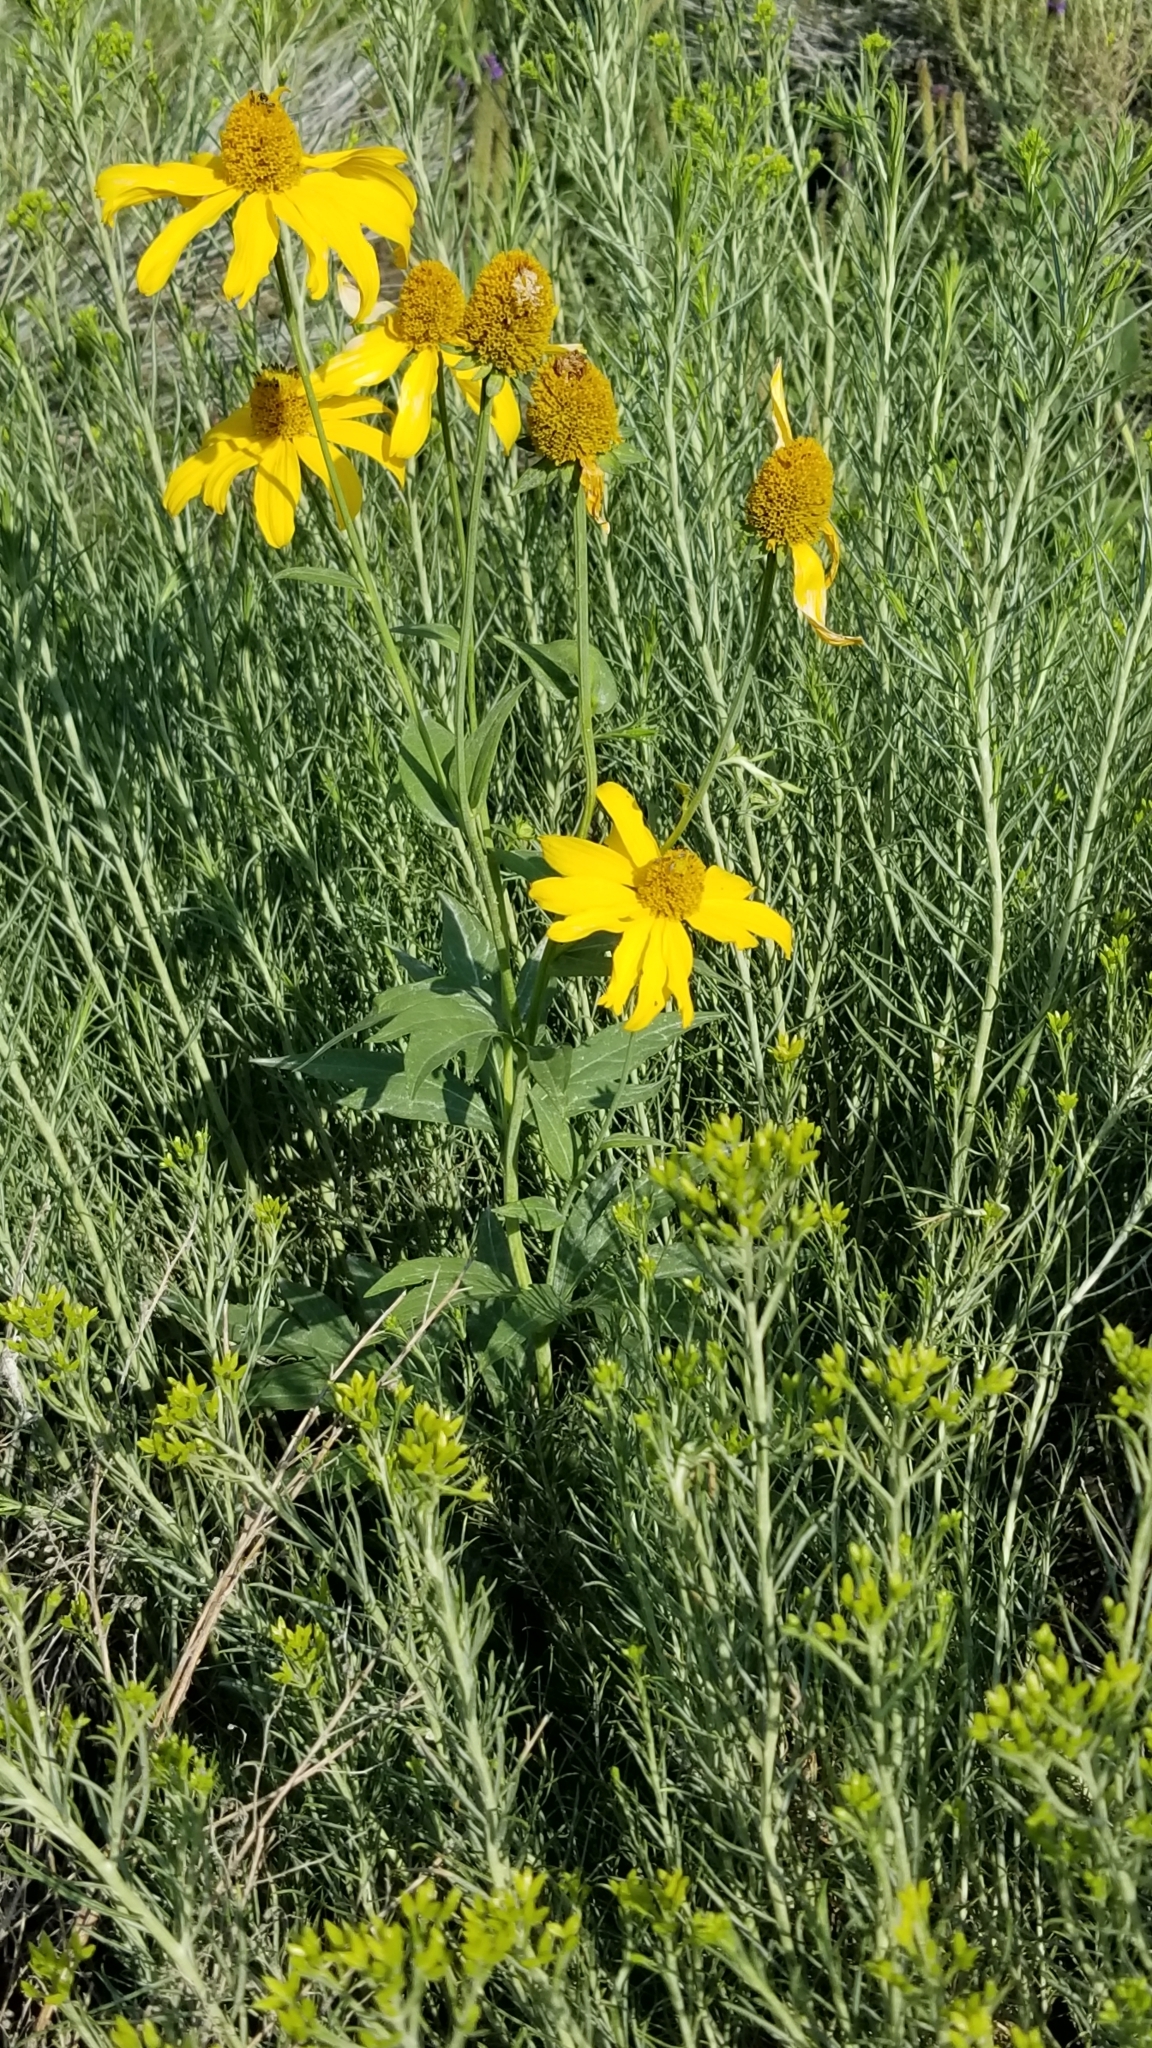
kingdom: Plantae
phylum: Tracheophyta
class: Magnoliopsida
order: Asterales
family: Asteraceae
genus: Rudbeckia
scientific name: Rudbeckia laciniata
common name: Coneflower
